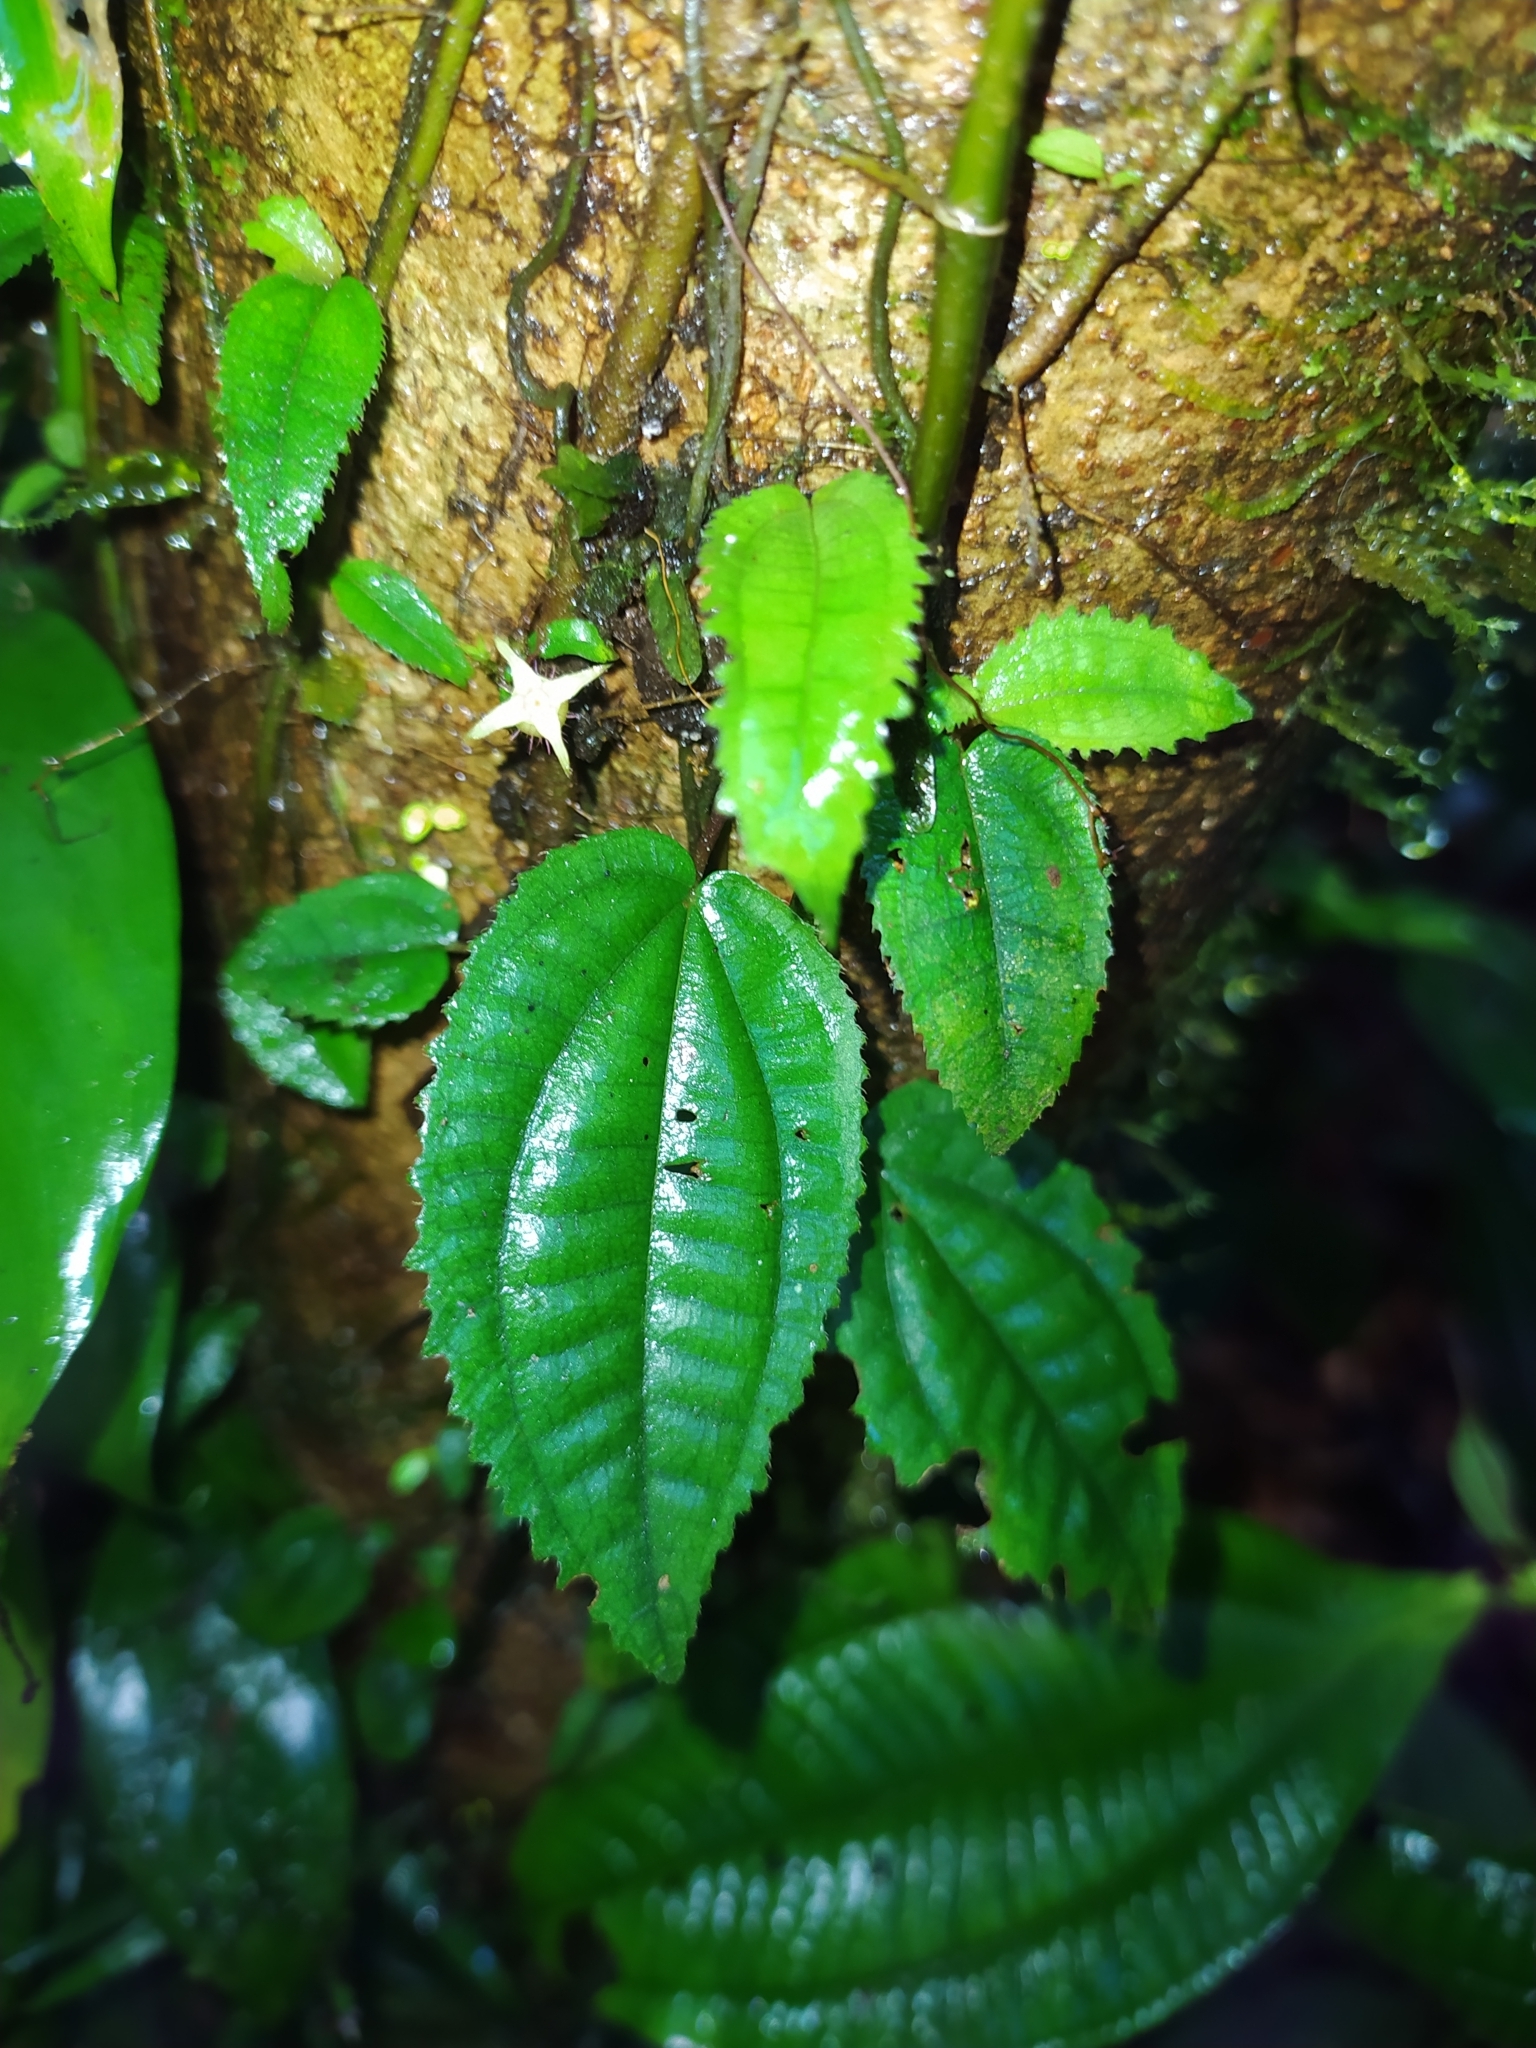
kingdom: Plantae
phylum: Tracheophyta
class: Magnoliopsida
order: Myrtales
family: Melastomataceae
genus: Miconia
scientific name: Miconia neoepiphytica
